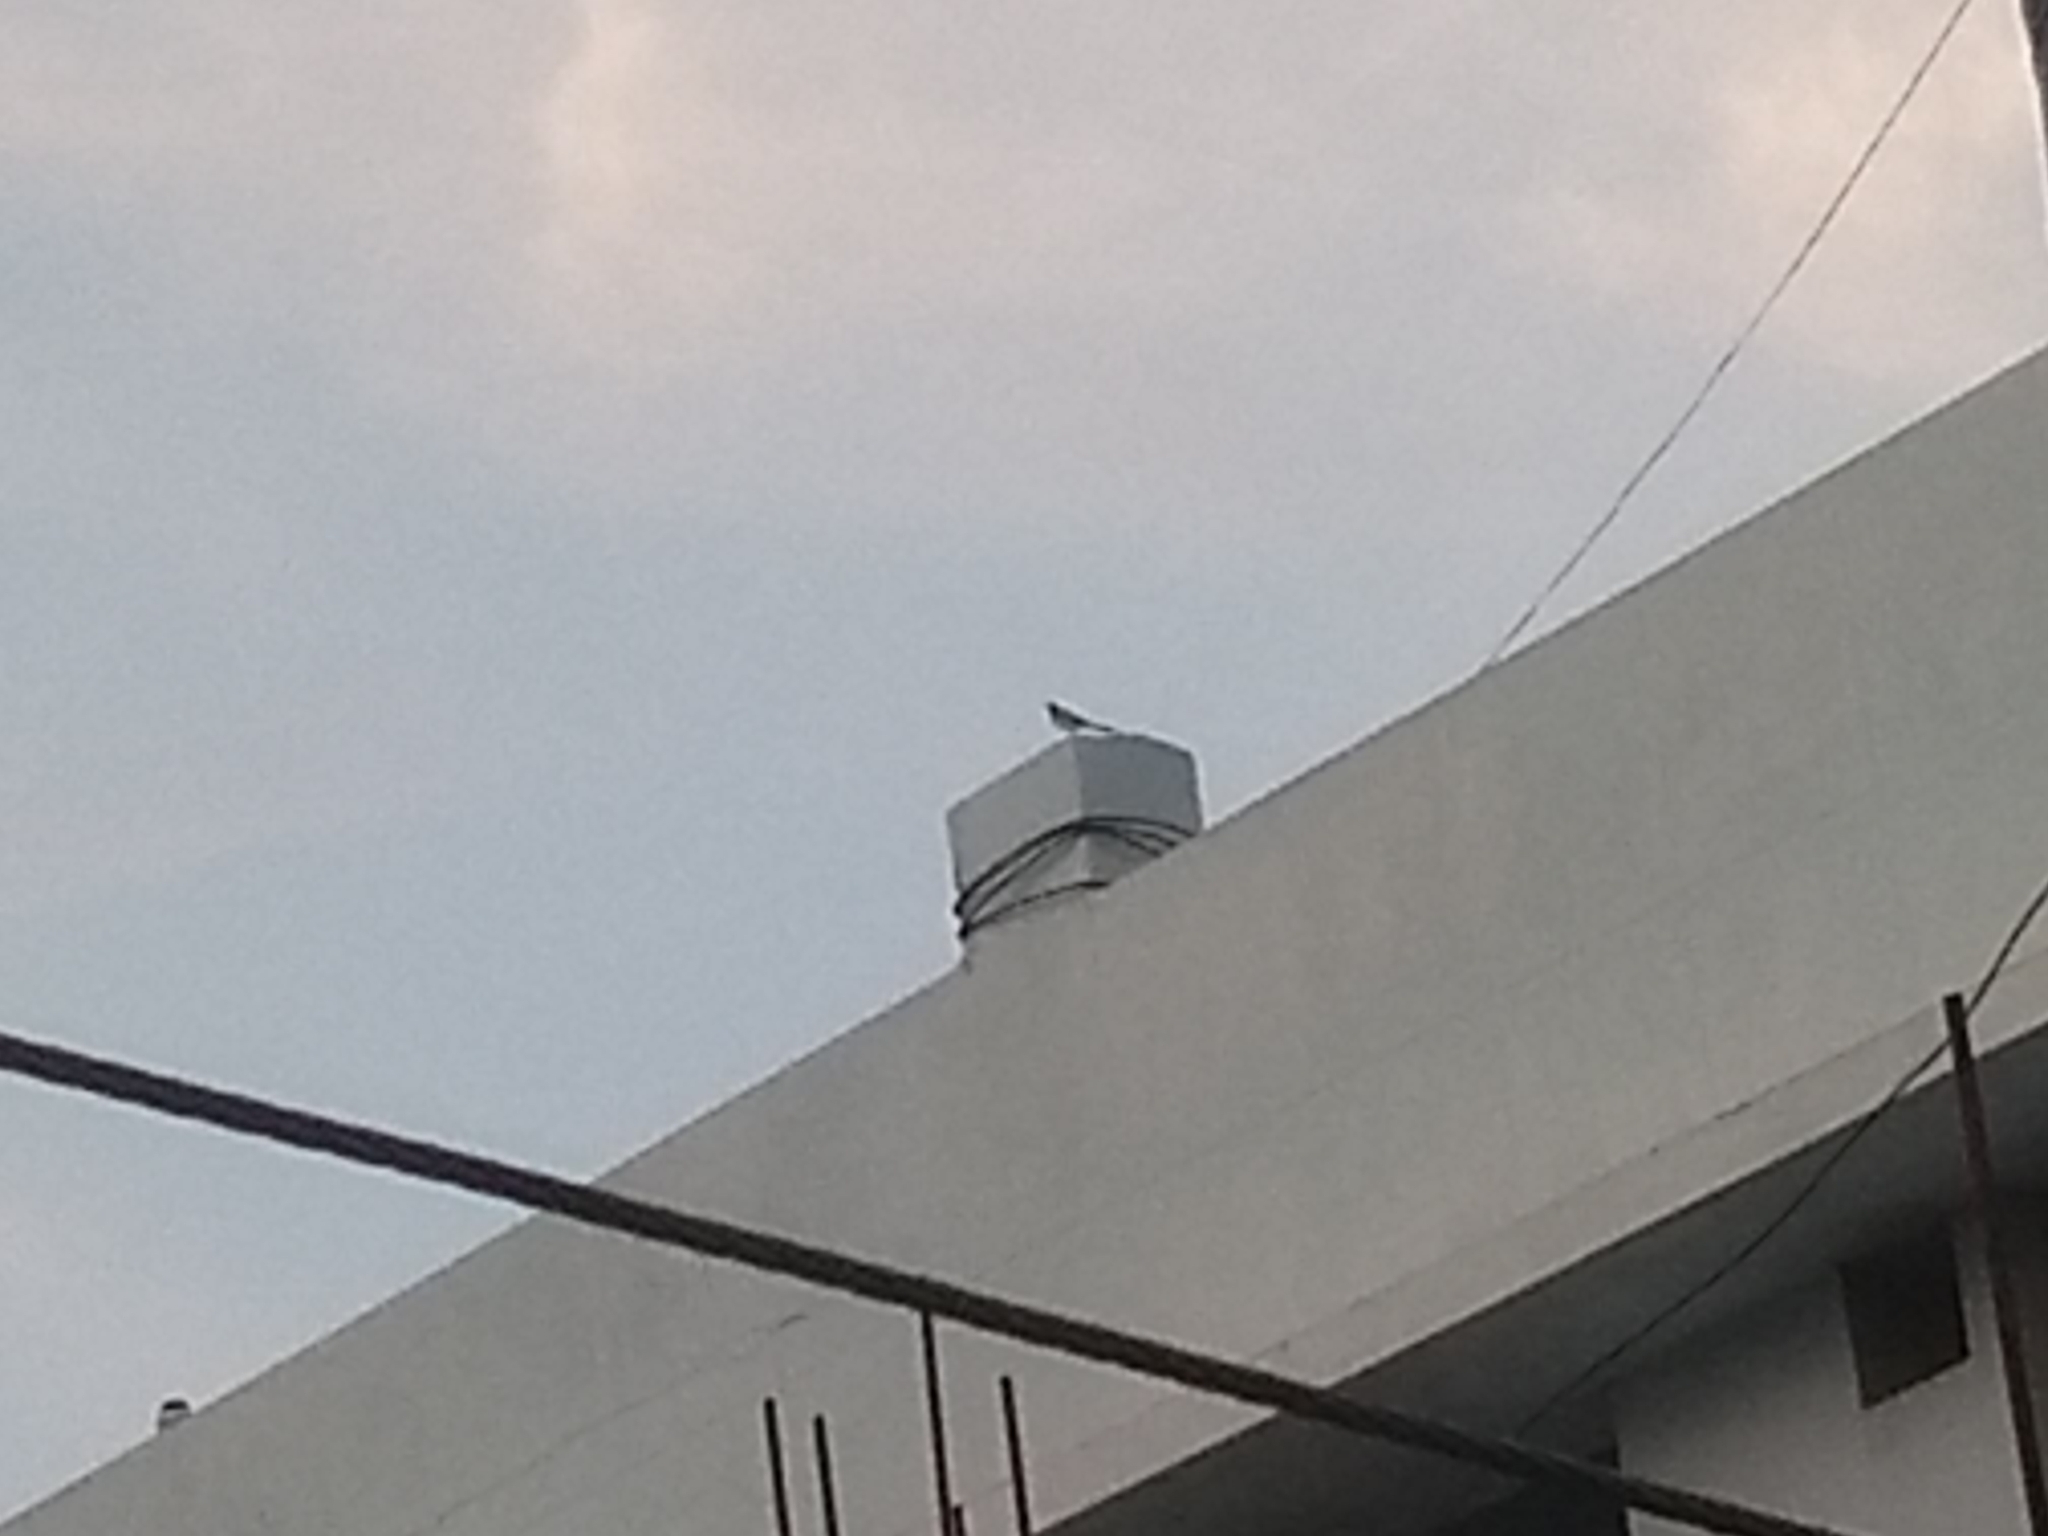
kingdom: Animalia
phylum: Chordata
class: Aves
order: Passeriformes
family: Motacillidae
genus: Motacilla
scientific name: Motacilla maderaspatensis
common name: White-browed wagtail
